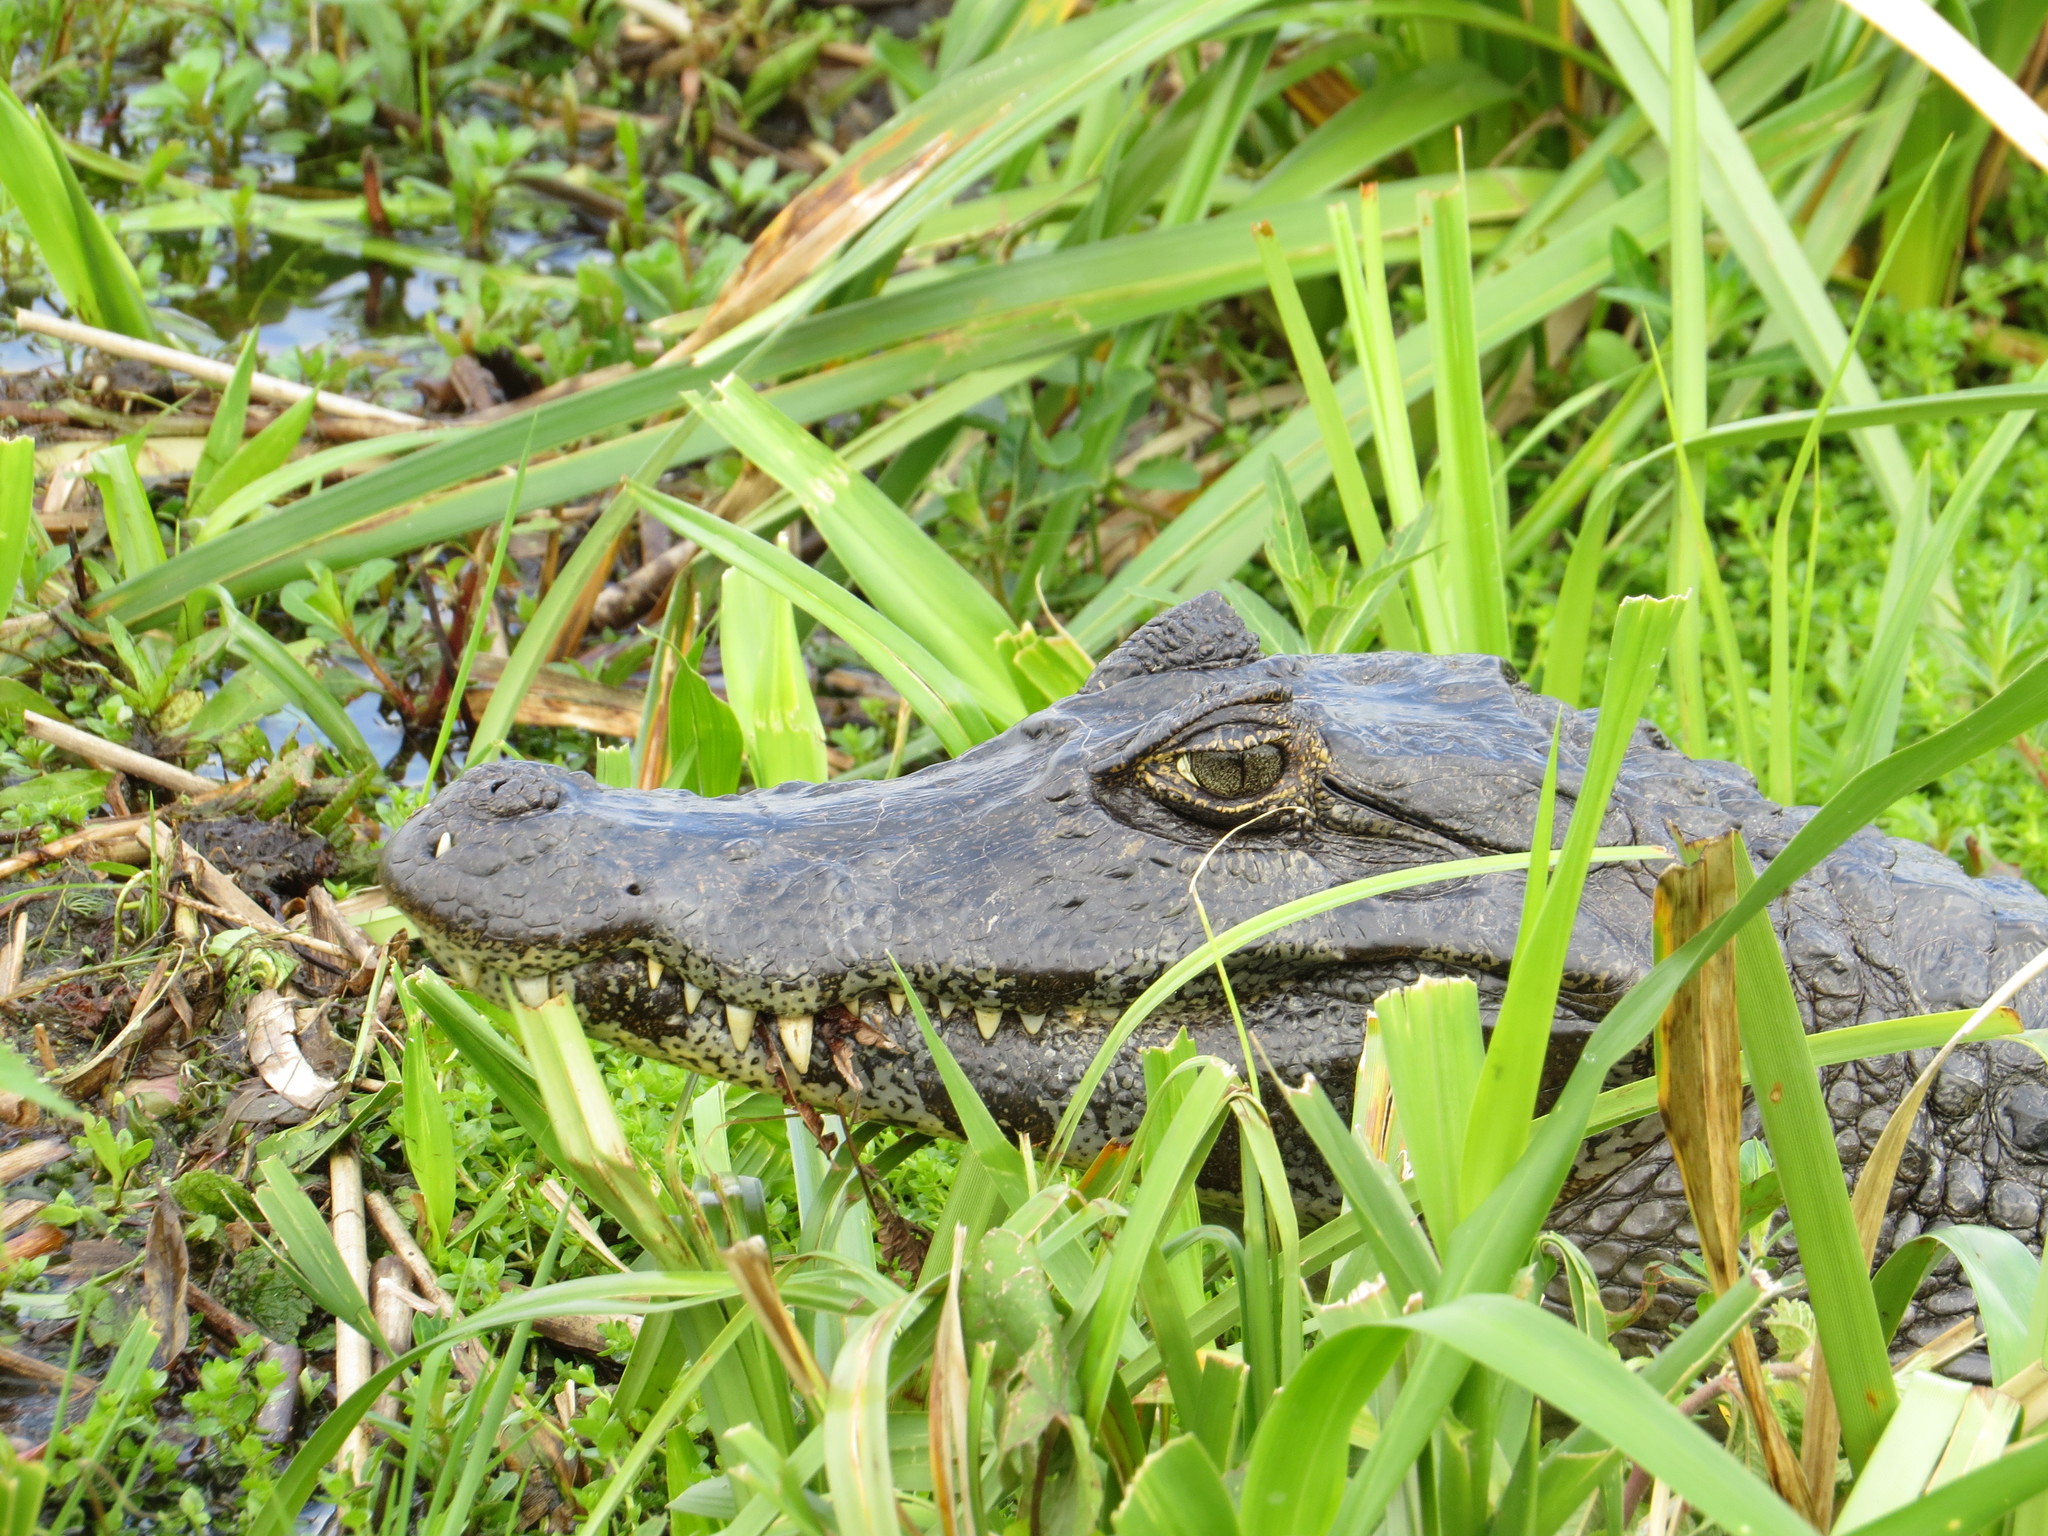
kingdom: Animalia
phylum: Chordata
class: Crocodylia
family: Alligatoridae
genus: Caiman
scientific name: Caiman yacare
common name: Yacare caiman
